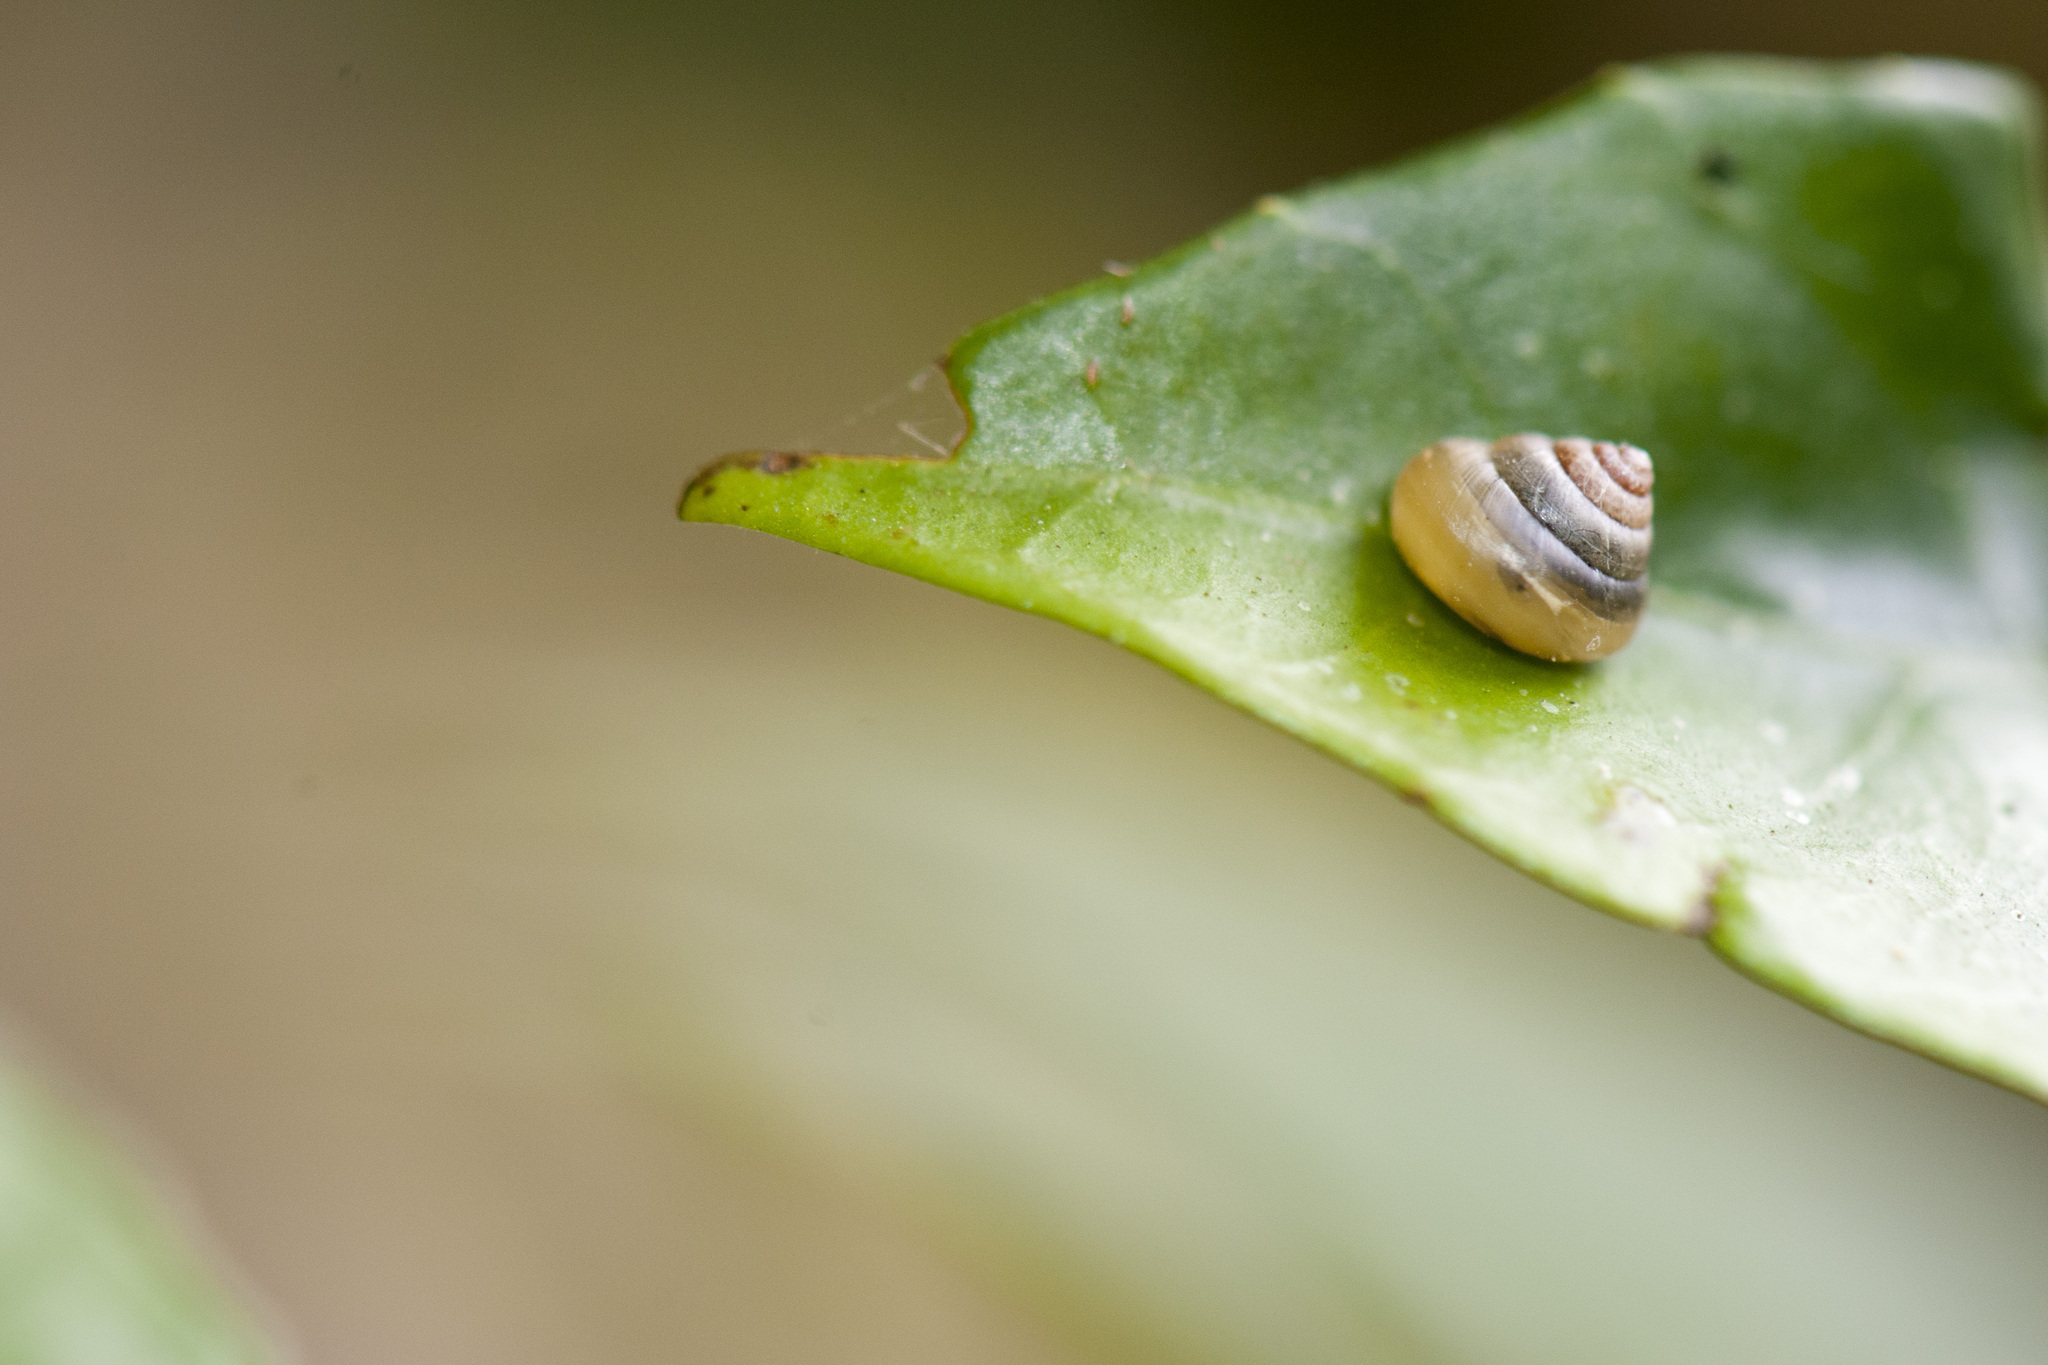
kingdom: Animalia
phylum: Mollusca
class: Gastropoda
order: Stylommatophora
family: Euconulidae
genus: Coneuplecta
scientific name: Coneuplecta
